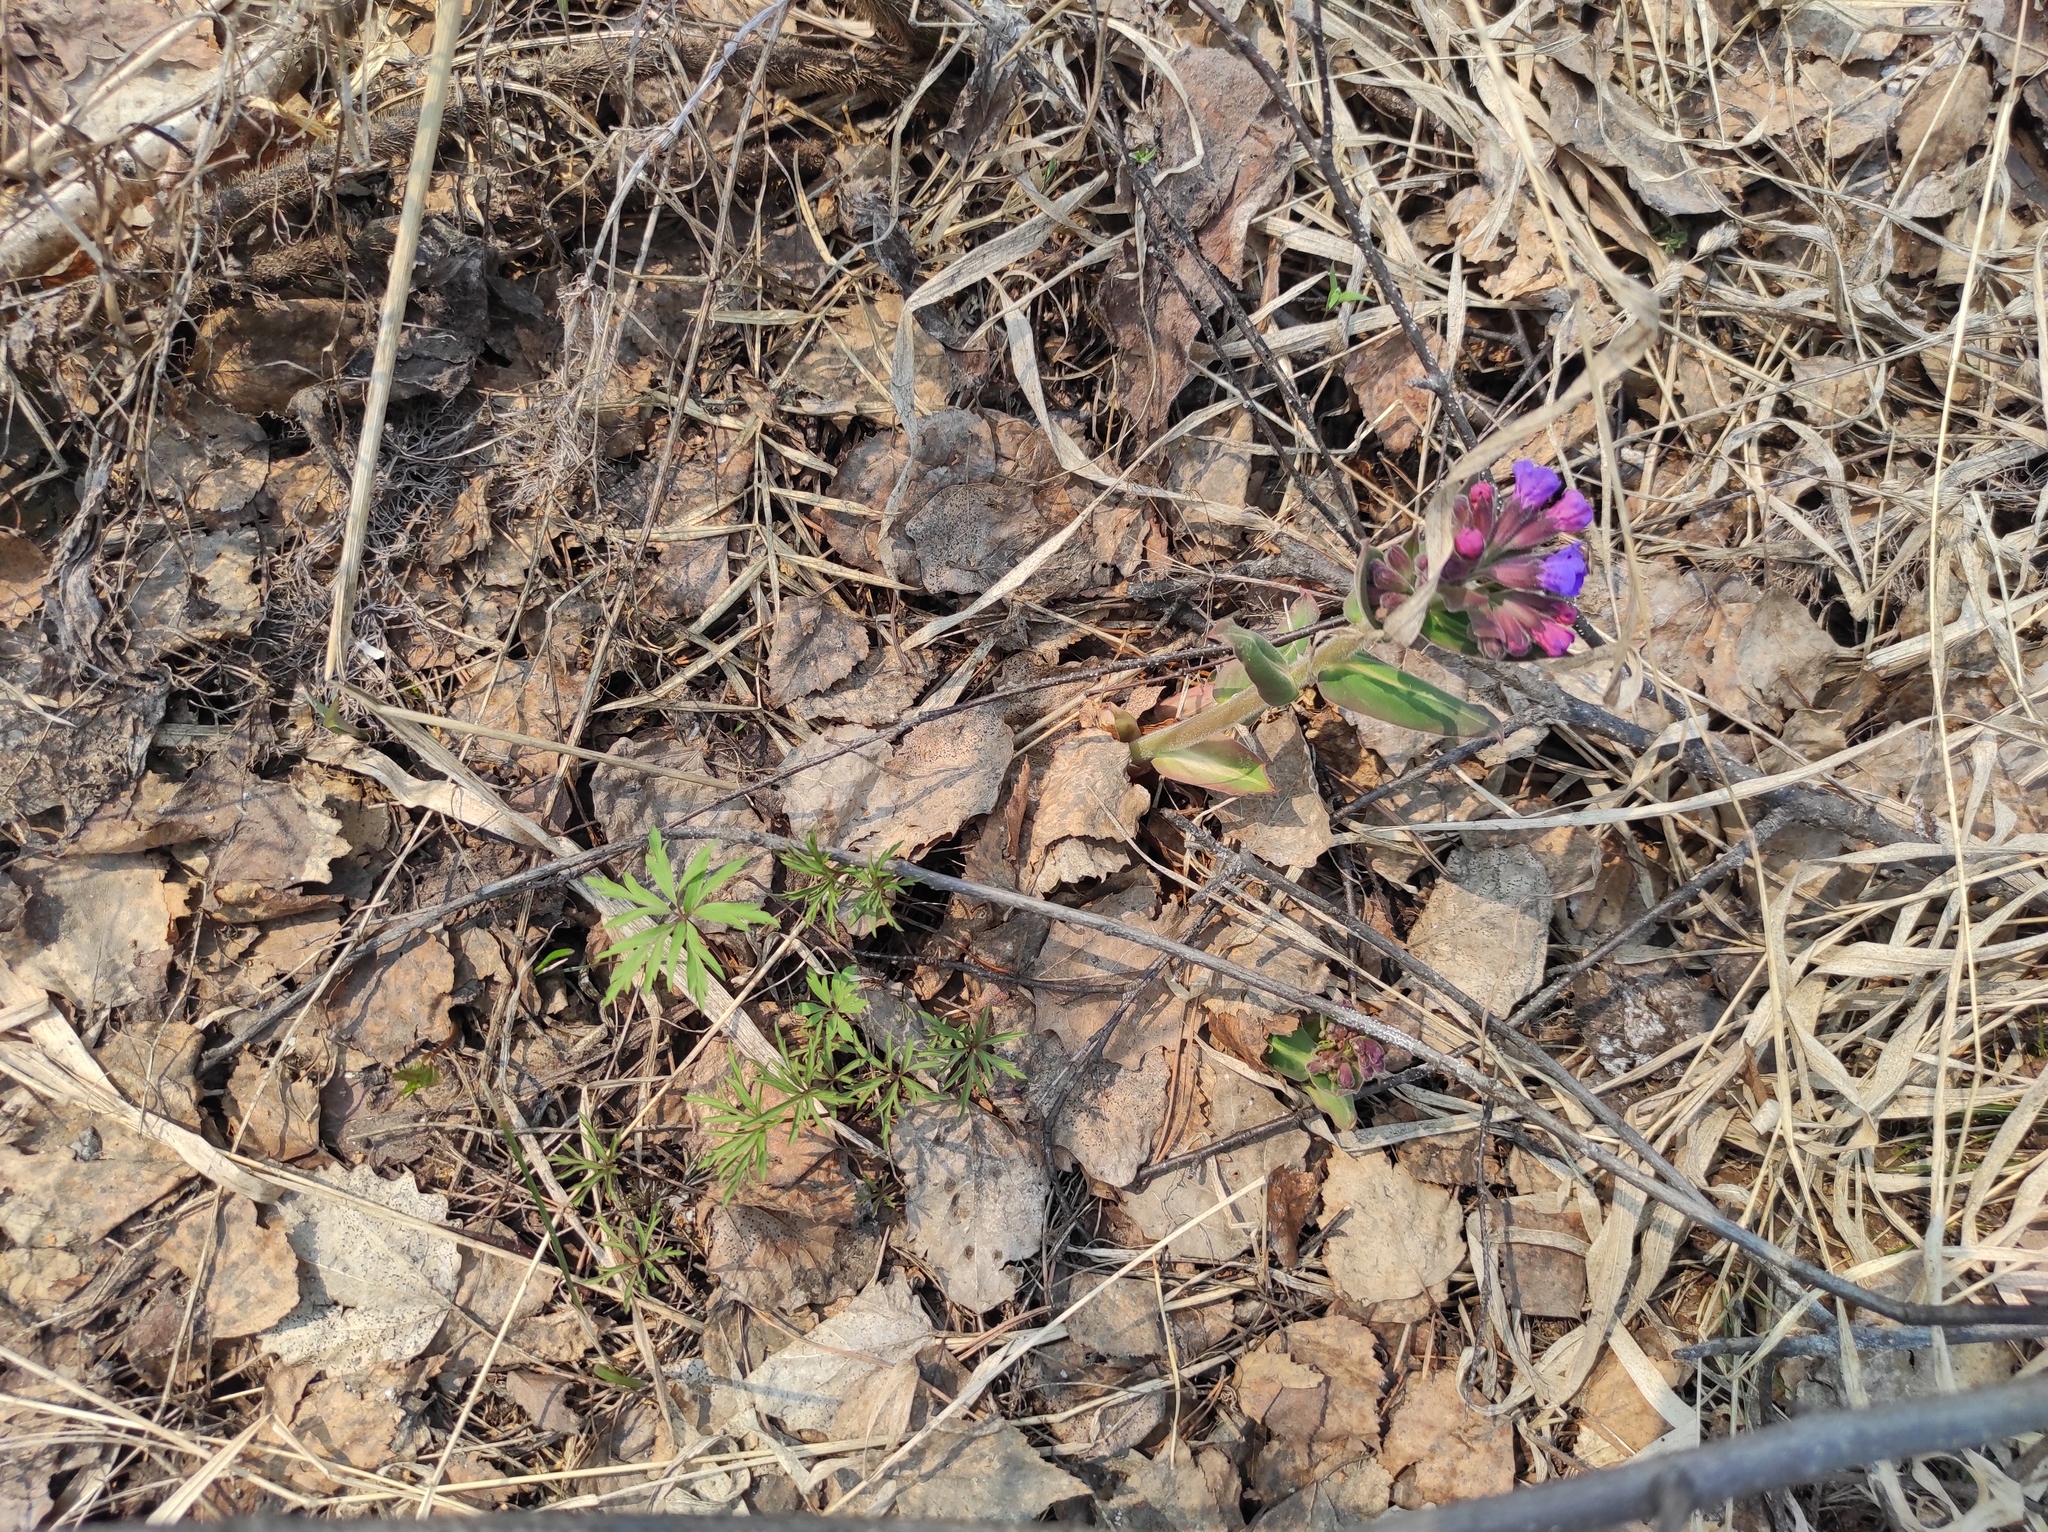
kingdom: Plantae
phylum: Tracheophyta
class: Magnoliopsida
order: Ranunculales
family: Ranunculaceae
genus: Anemone
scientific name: Anemone caerulea
